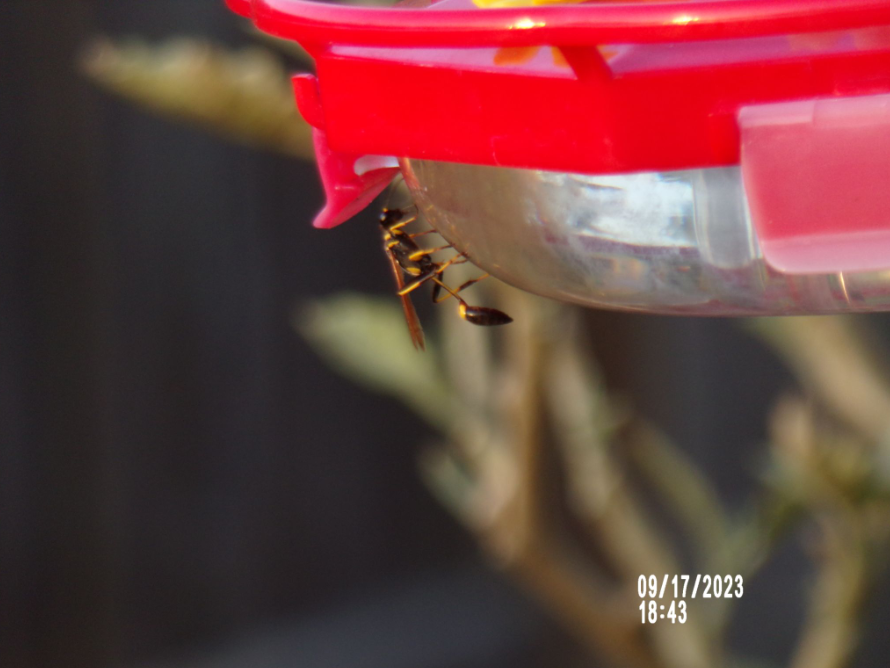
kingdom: Animalia
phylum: Arthropoda
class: Insecta
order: Hymenoptera
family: Sphecidae
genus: Sceliphron
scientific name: Sceliphron caementarium
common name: Mud dauber
